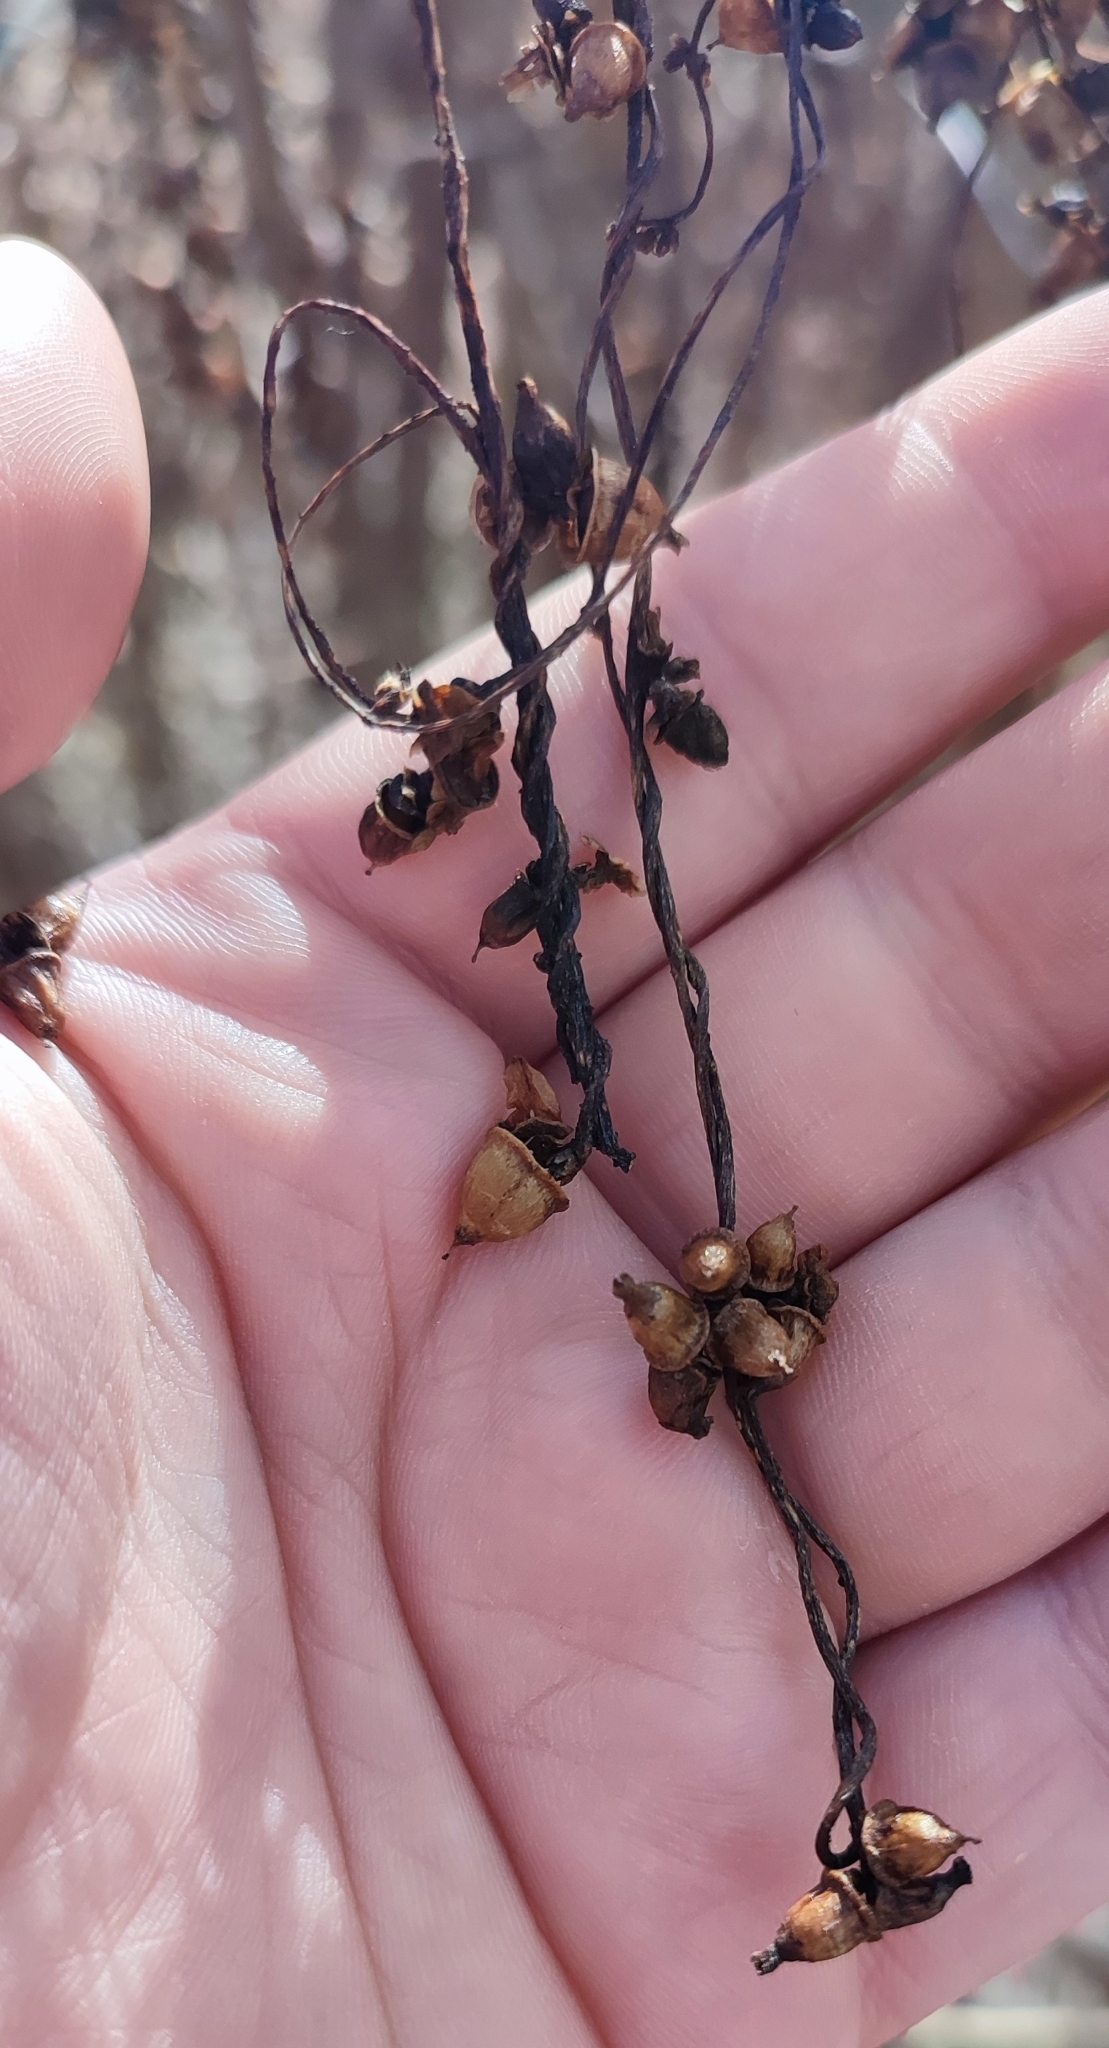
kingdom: Plantae
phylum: Tracheophyta
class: Magnoliopsida
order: Solanales
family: Convolvulaceae
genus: Convolvulus
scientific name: Convolvulus arvensis
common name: Field bindweed
